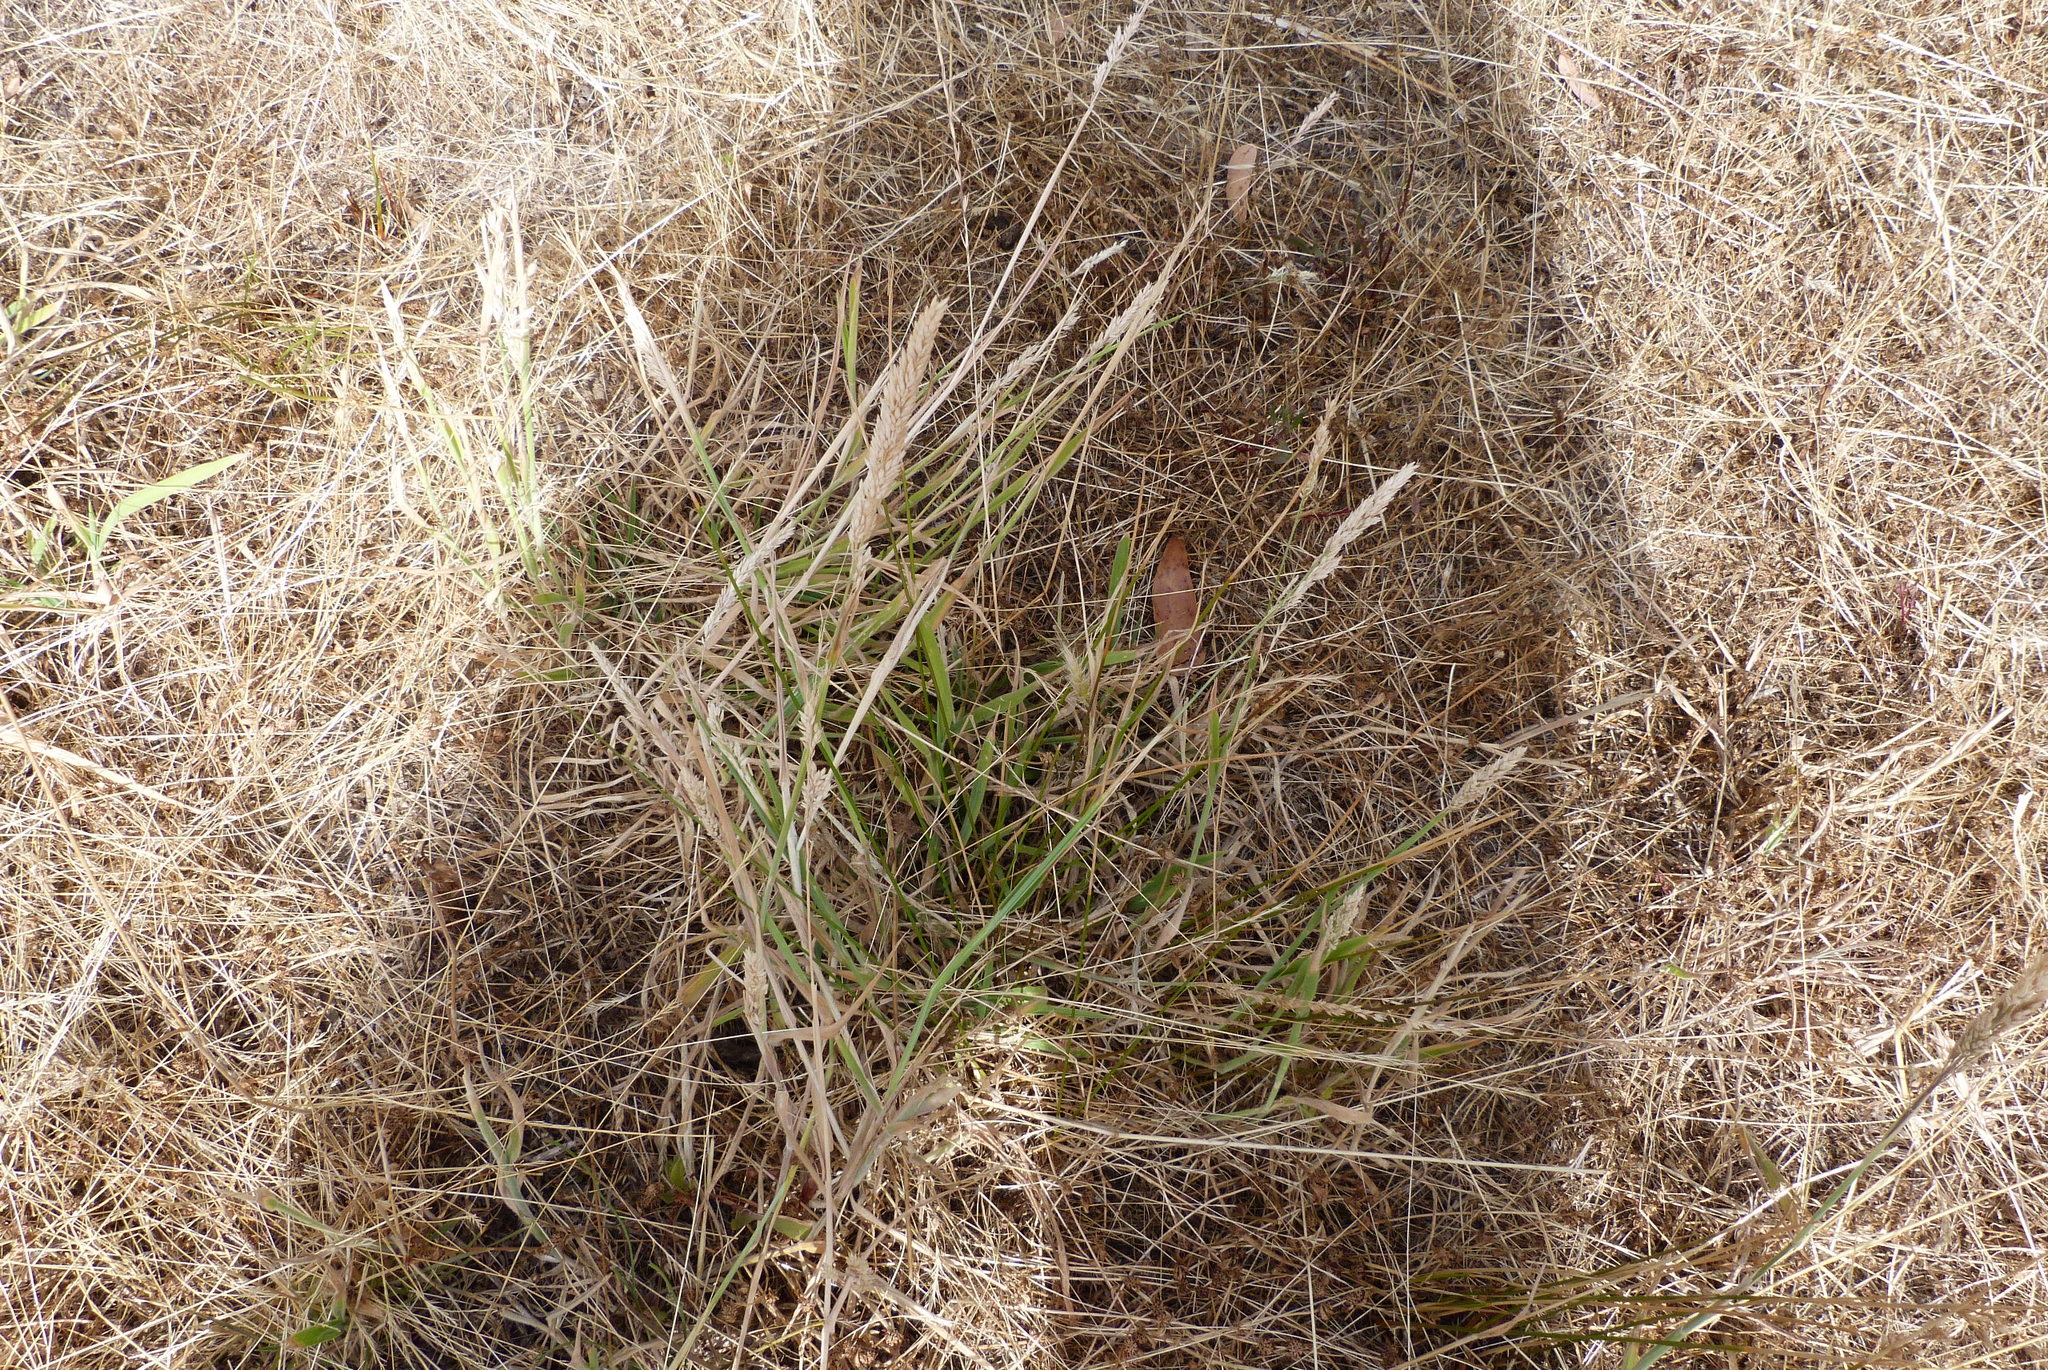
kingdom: Plantae
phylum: Tracheophyta
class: Liliopsida
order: Poales
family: Poaceae
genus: Holcus
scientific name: Holcus lanatus
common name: Yorkshire-fog
